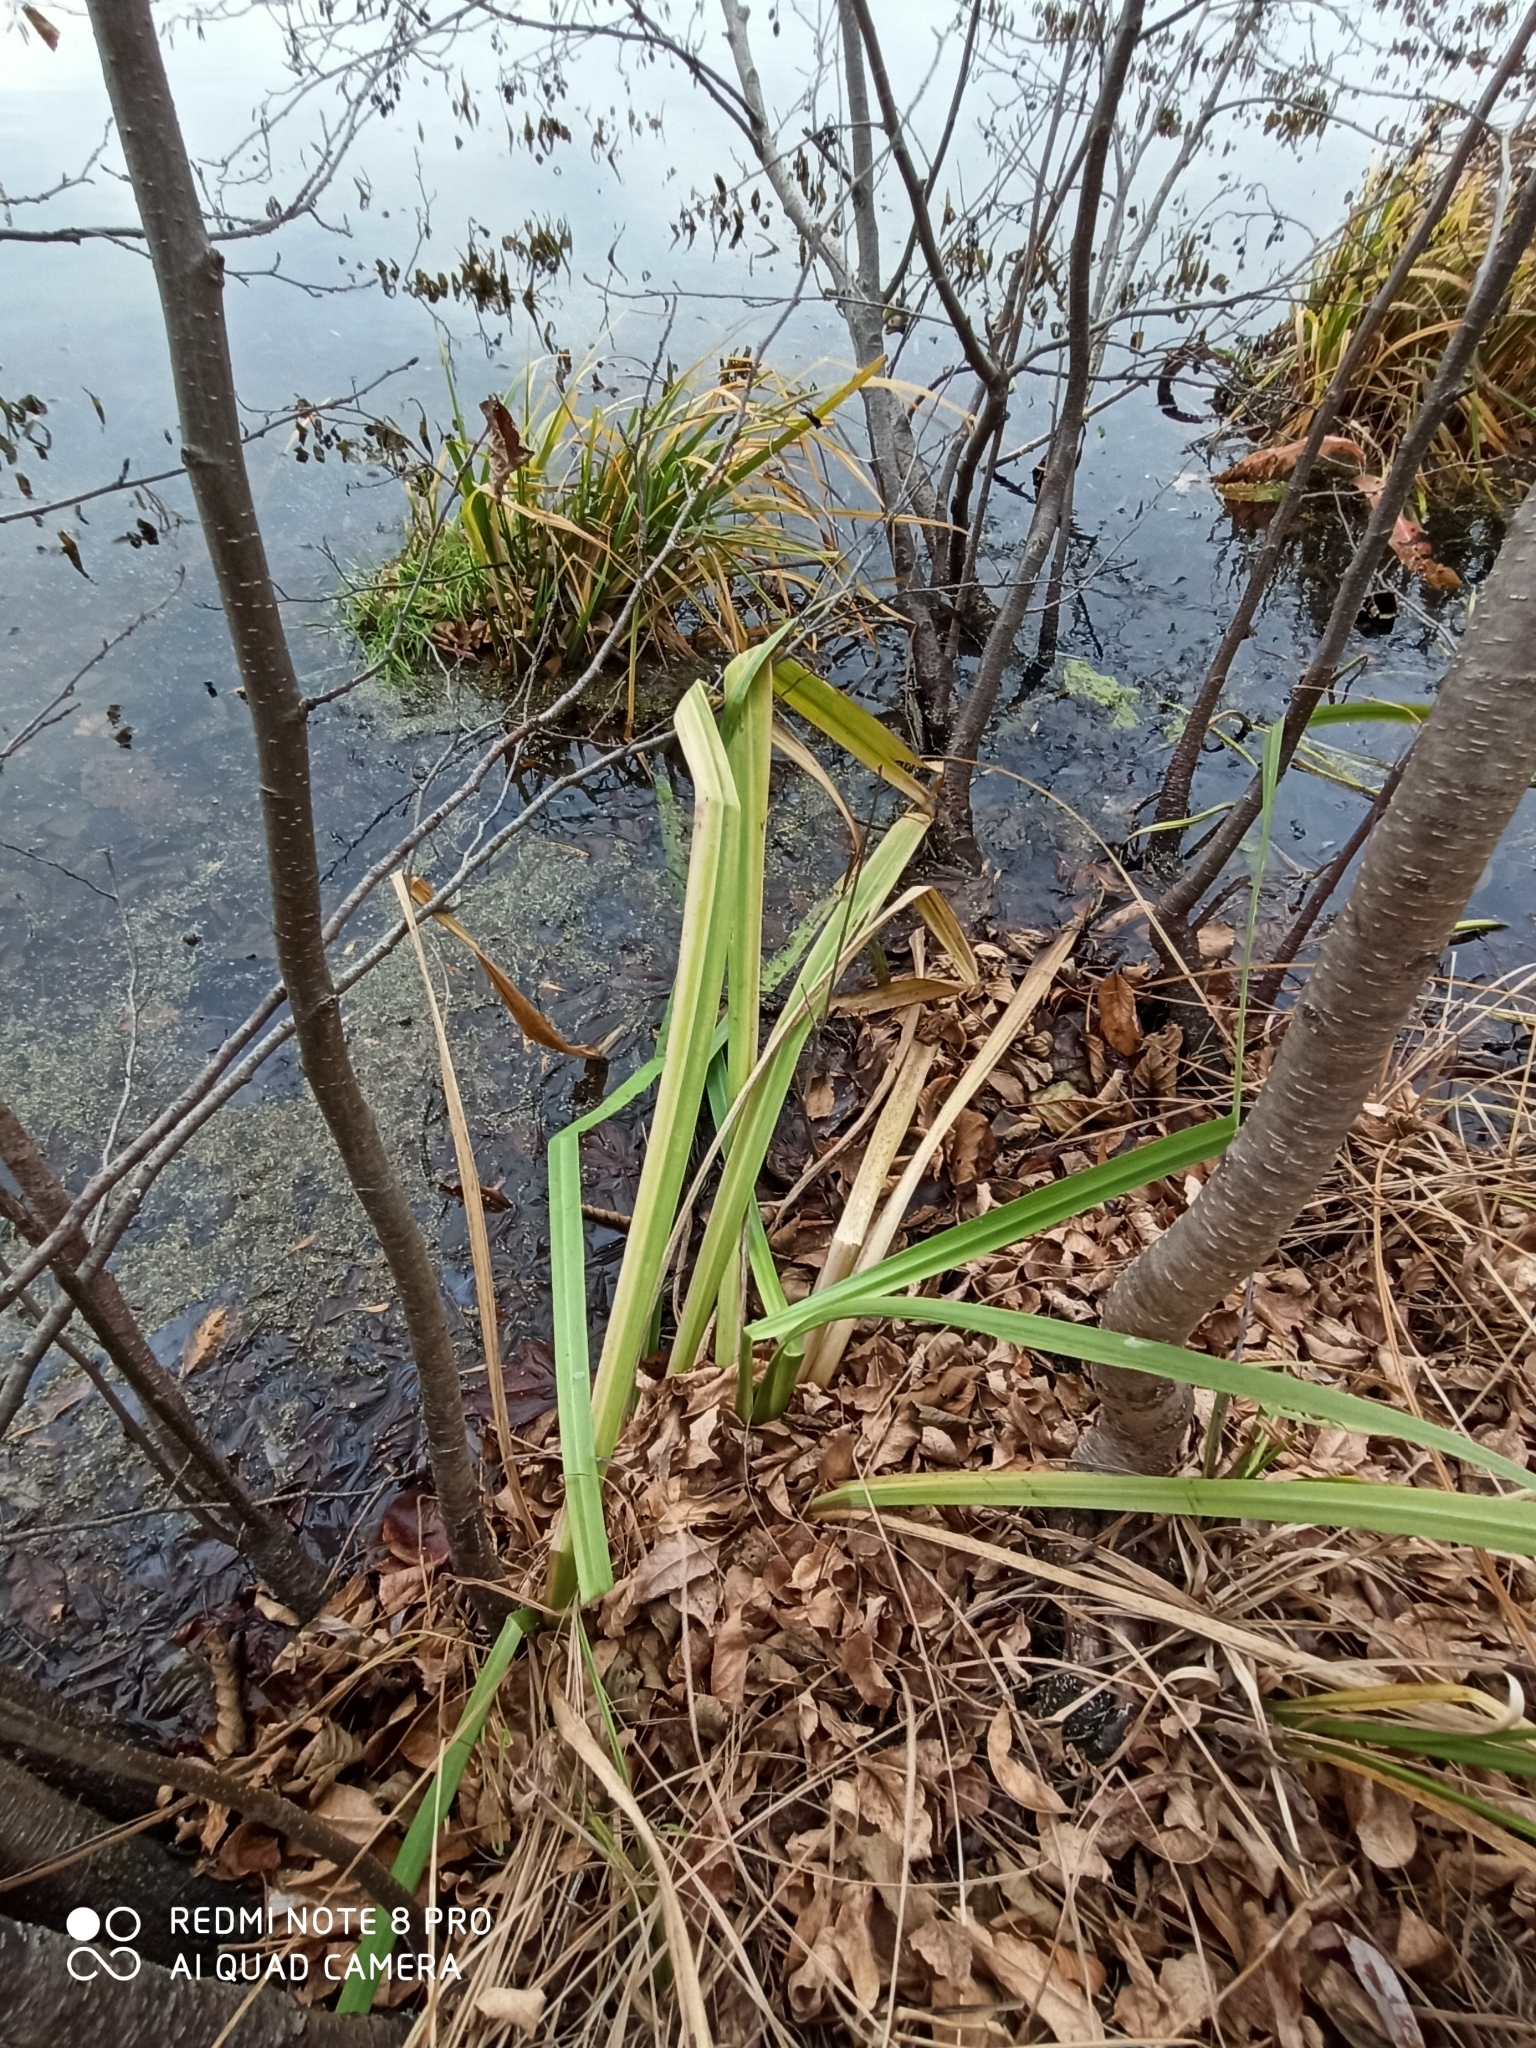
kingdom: Plantae
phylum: Tracheophyta
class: Liliopsida
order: Asparagales
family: Iridaceae
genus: Iris
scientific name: Iris pseudacorus
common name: Yellow flag
